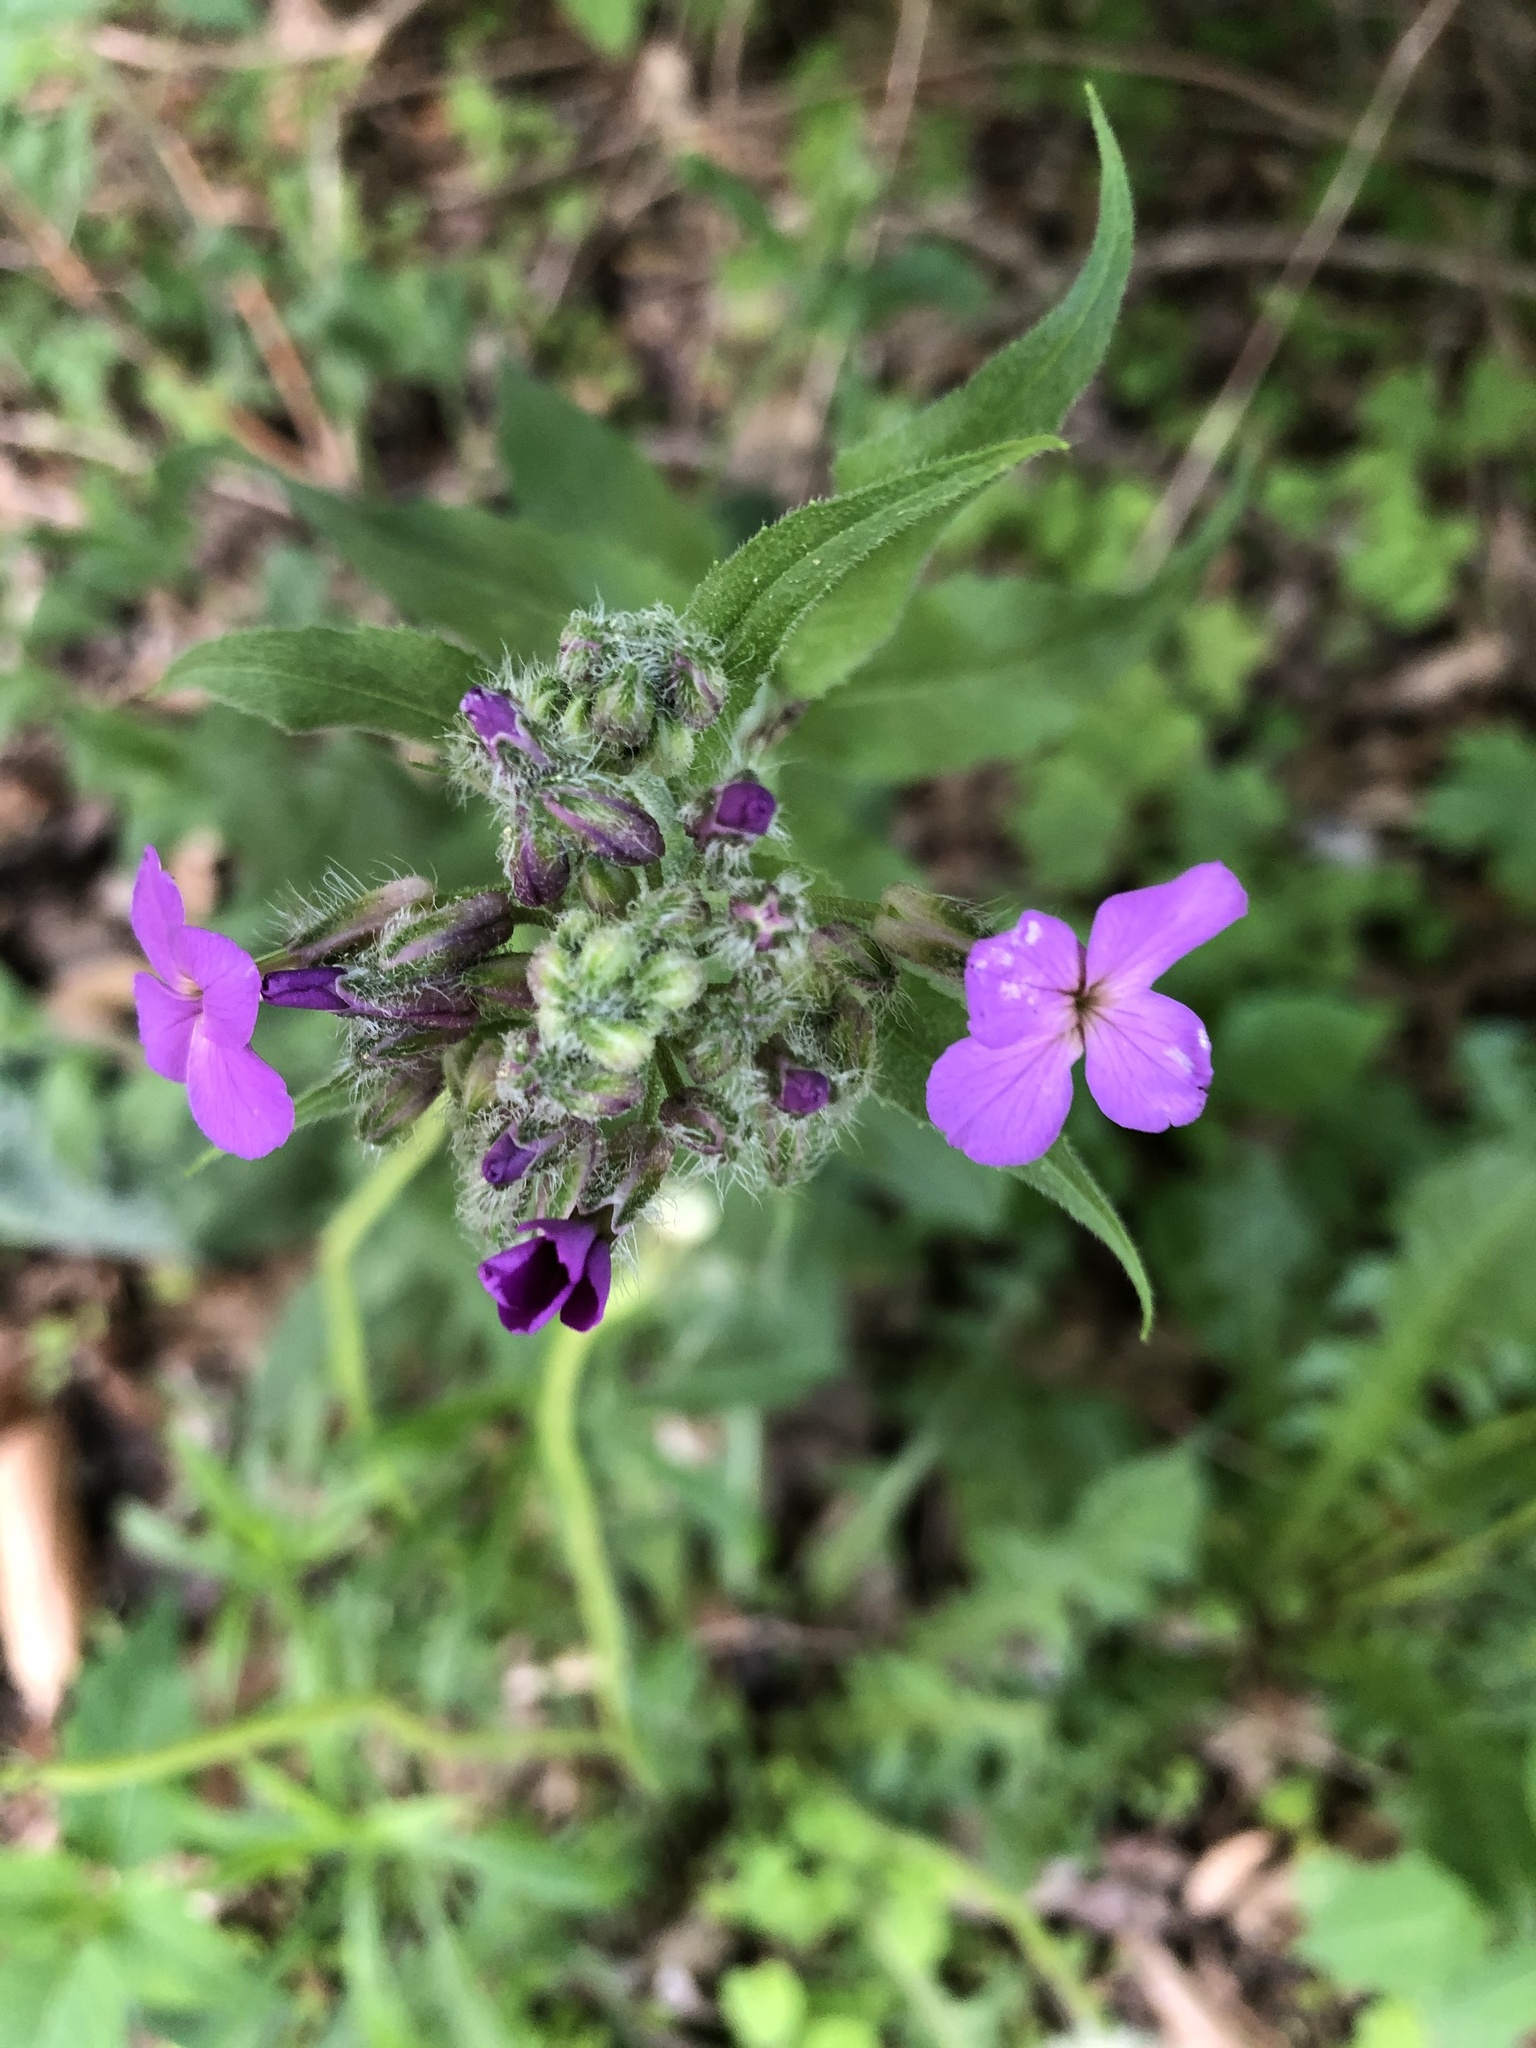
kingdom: Plantae
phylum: Tracheophyta
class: Magnoliopsida
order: Brassicales
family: Brassicaceae
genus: Hesperis
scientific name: Hesperis matronalis
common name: Dame's-violet
